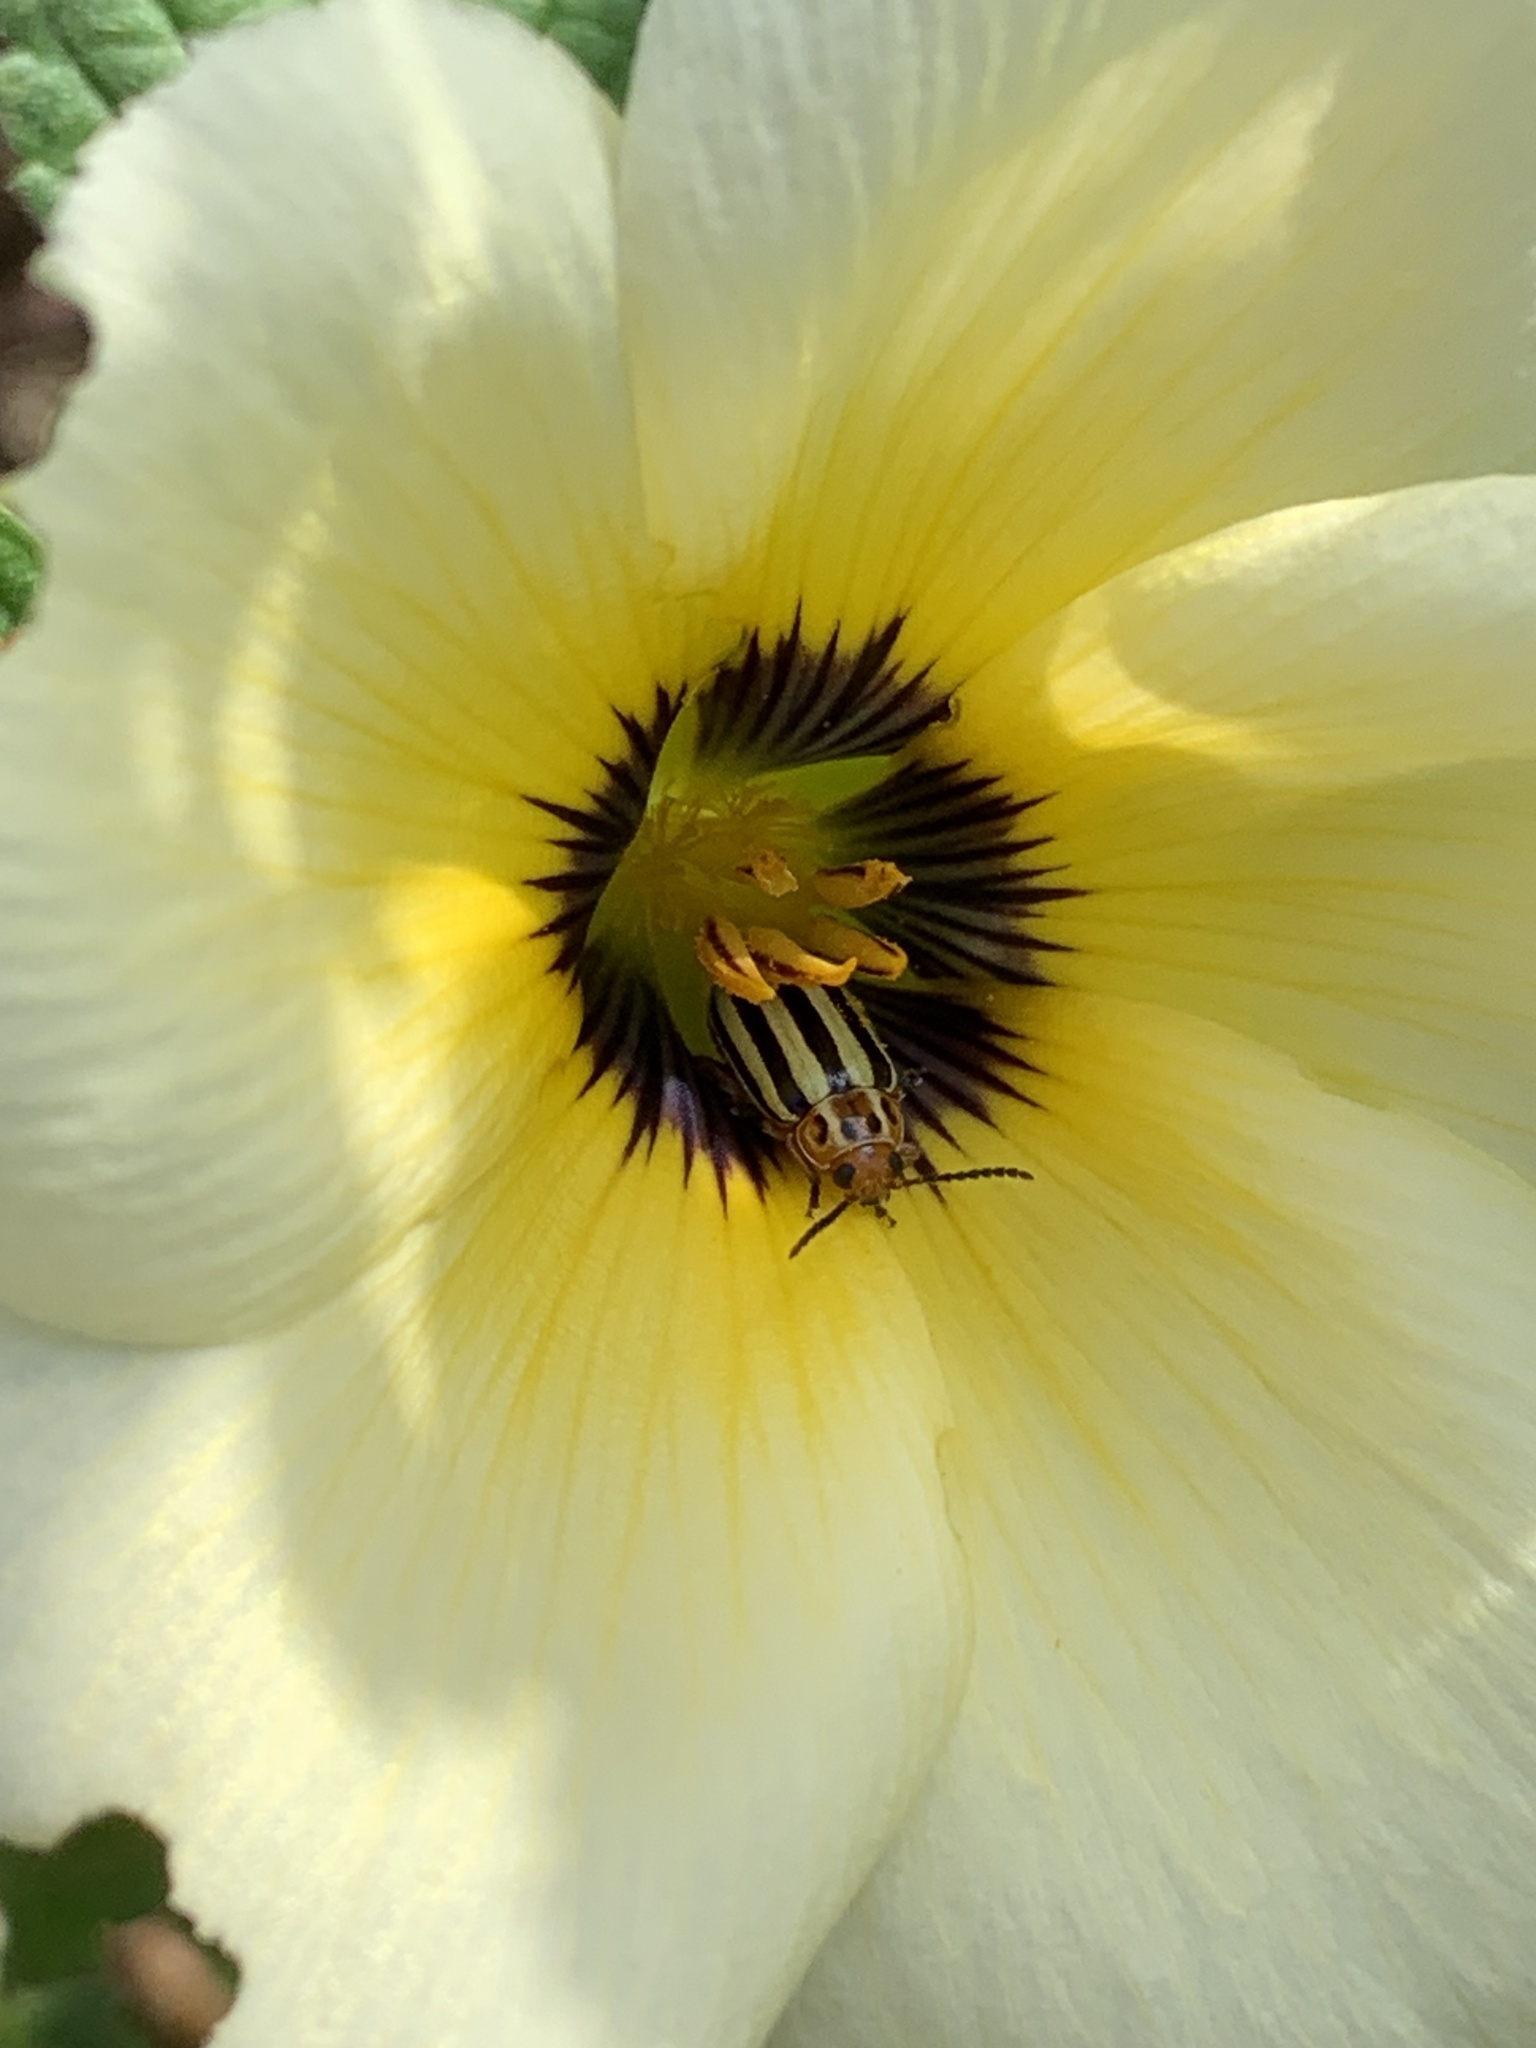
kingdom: Animalia
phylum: Arthropoda
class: Insecta
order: Coleoptera
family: Chrysomelidae
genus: Disonycha
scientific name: Disonycha spilotrachela
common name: Caribbean flea beetle
